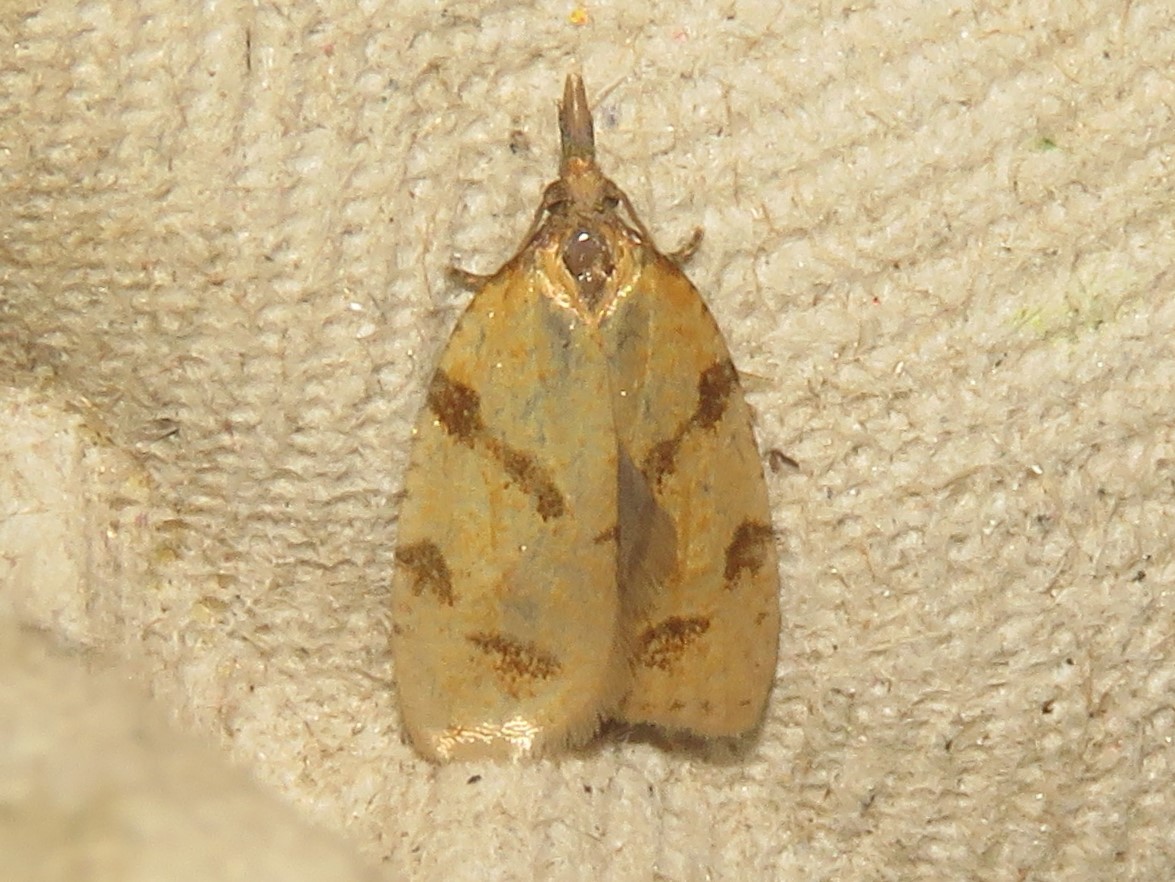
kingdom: Animalia
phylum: Arthropoda
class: Insecta
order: Lepidoptera
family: Tortricidae
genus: Sparganothis
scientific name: Sparganothis unifasciana
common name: One-lined sparganothis moth
